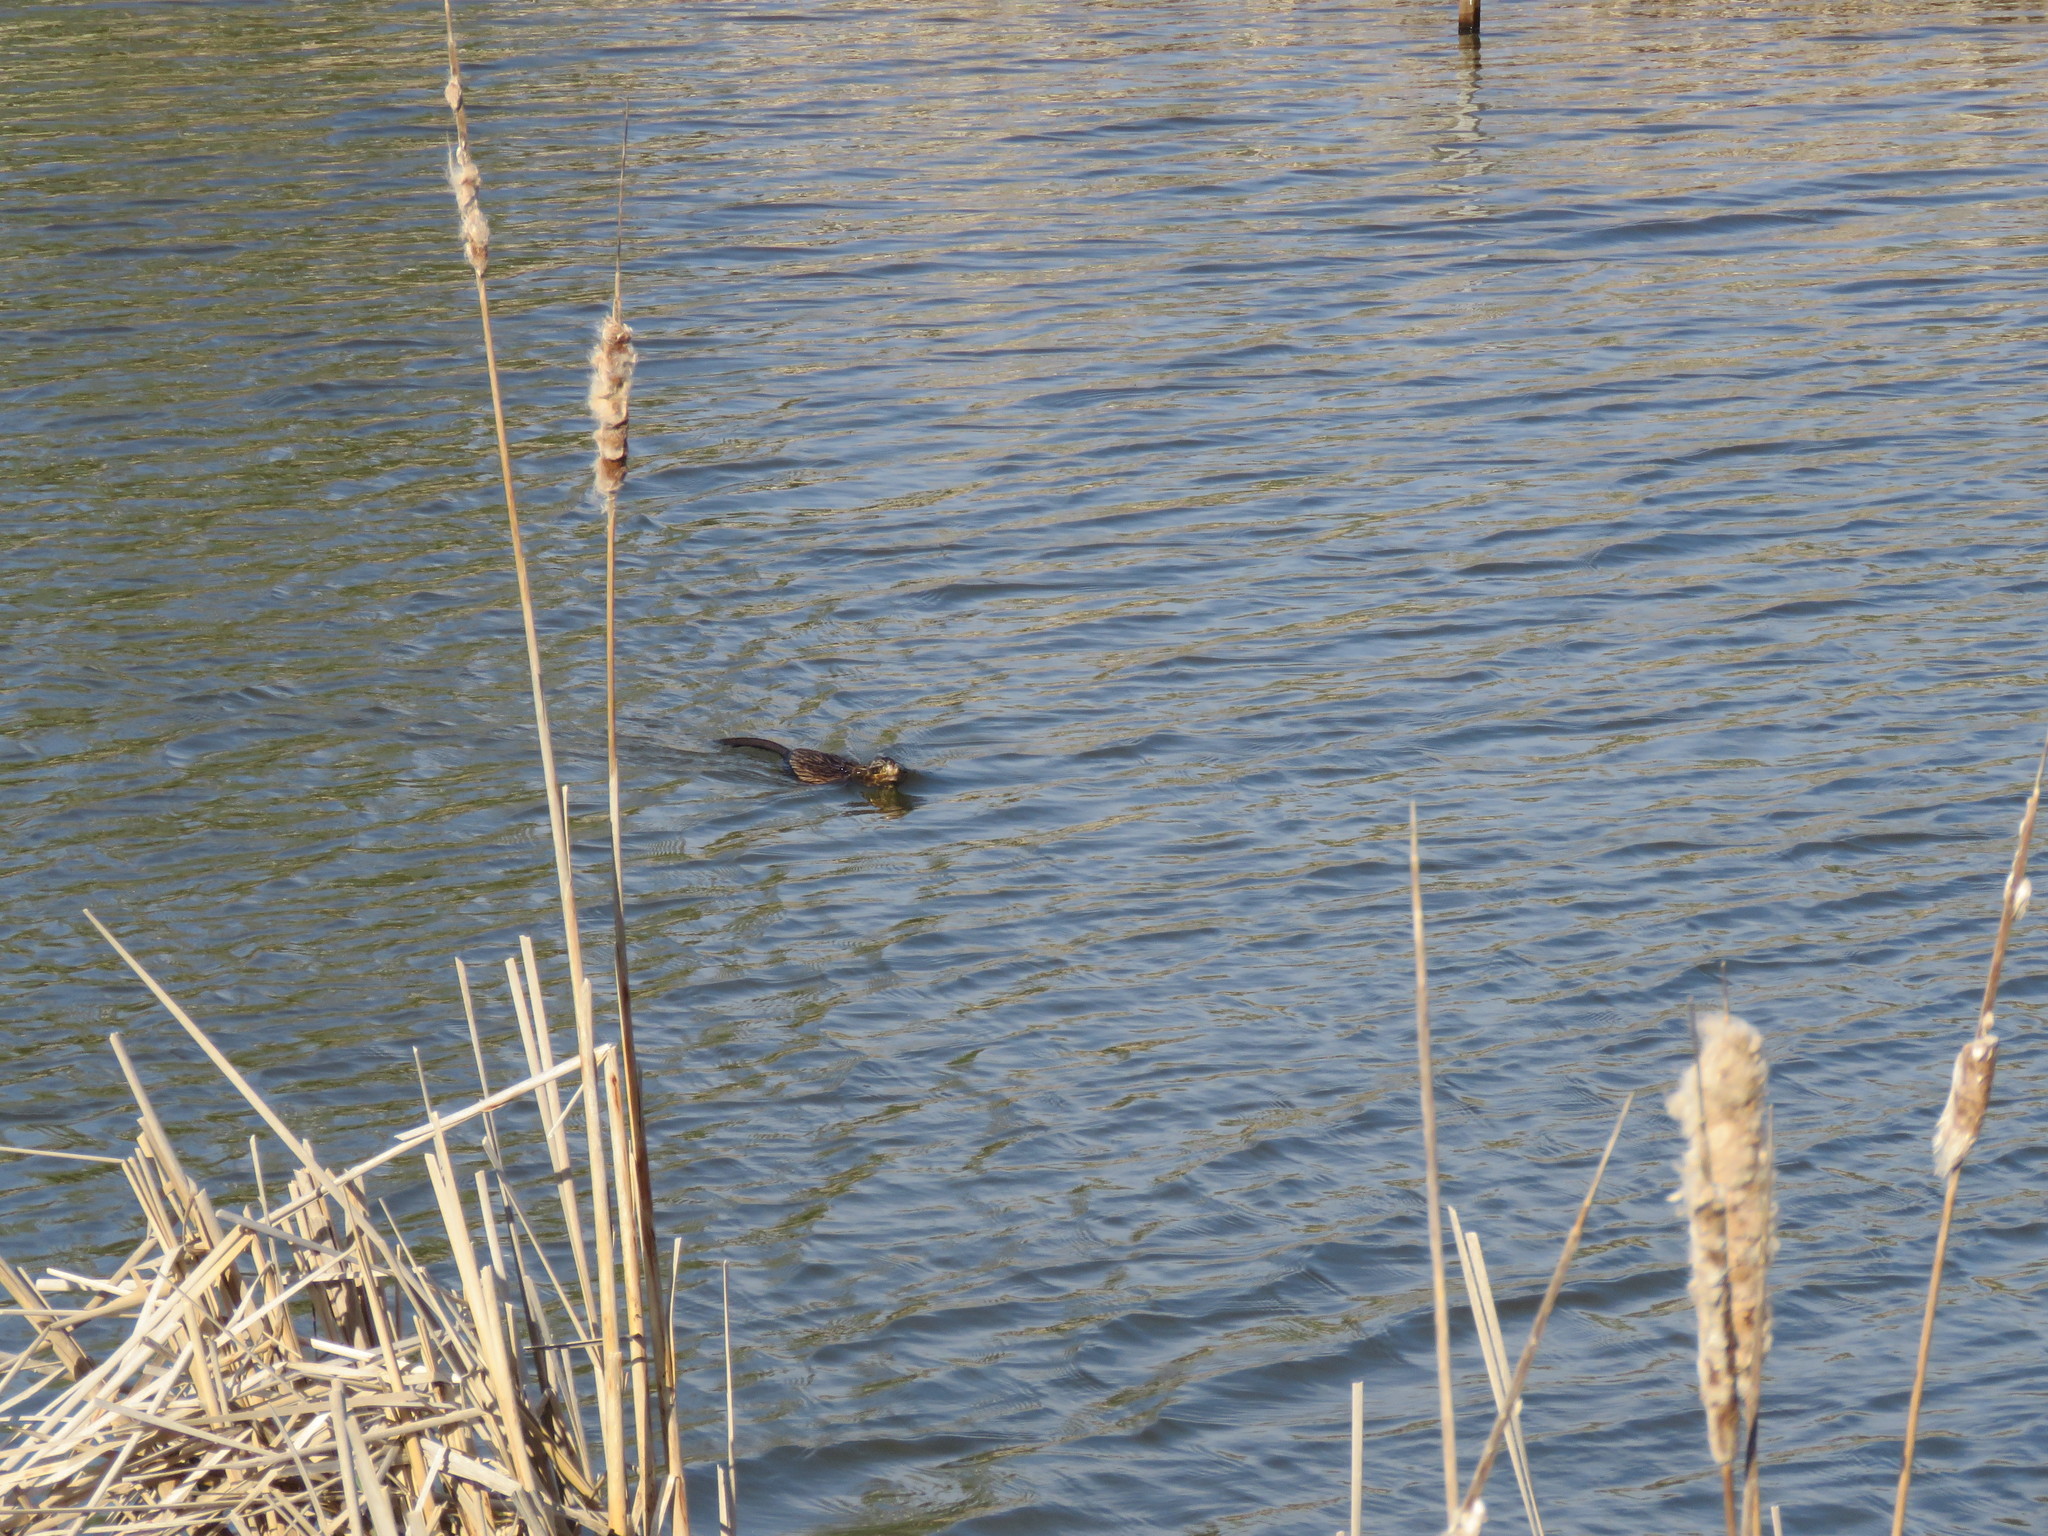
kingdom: Animalia
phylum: Chordata
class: Mammalia
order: Rodentia
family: Cricetidae
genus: Ondatra
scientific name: Ondatra zibethicus
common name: Muskrat
